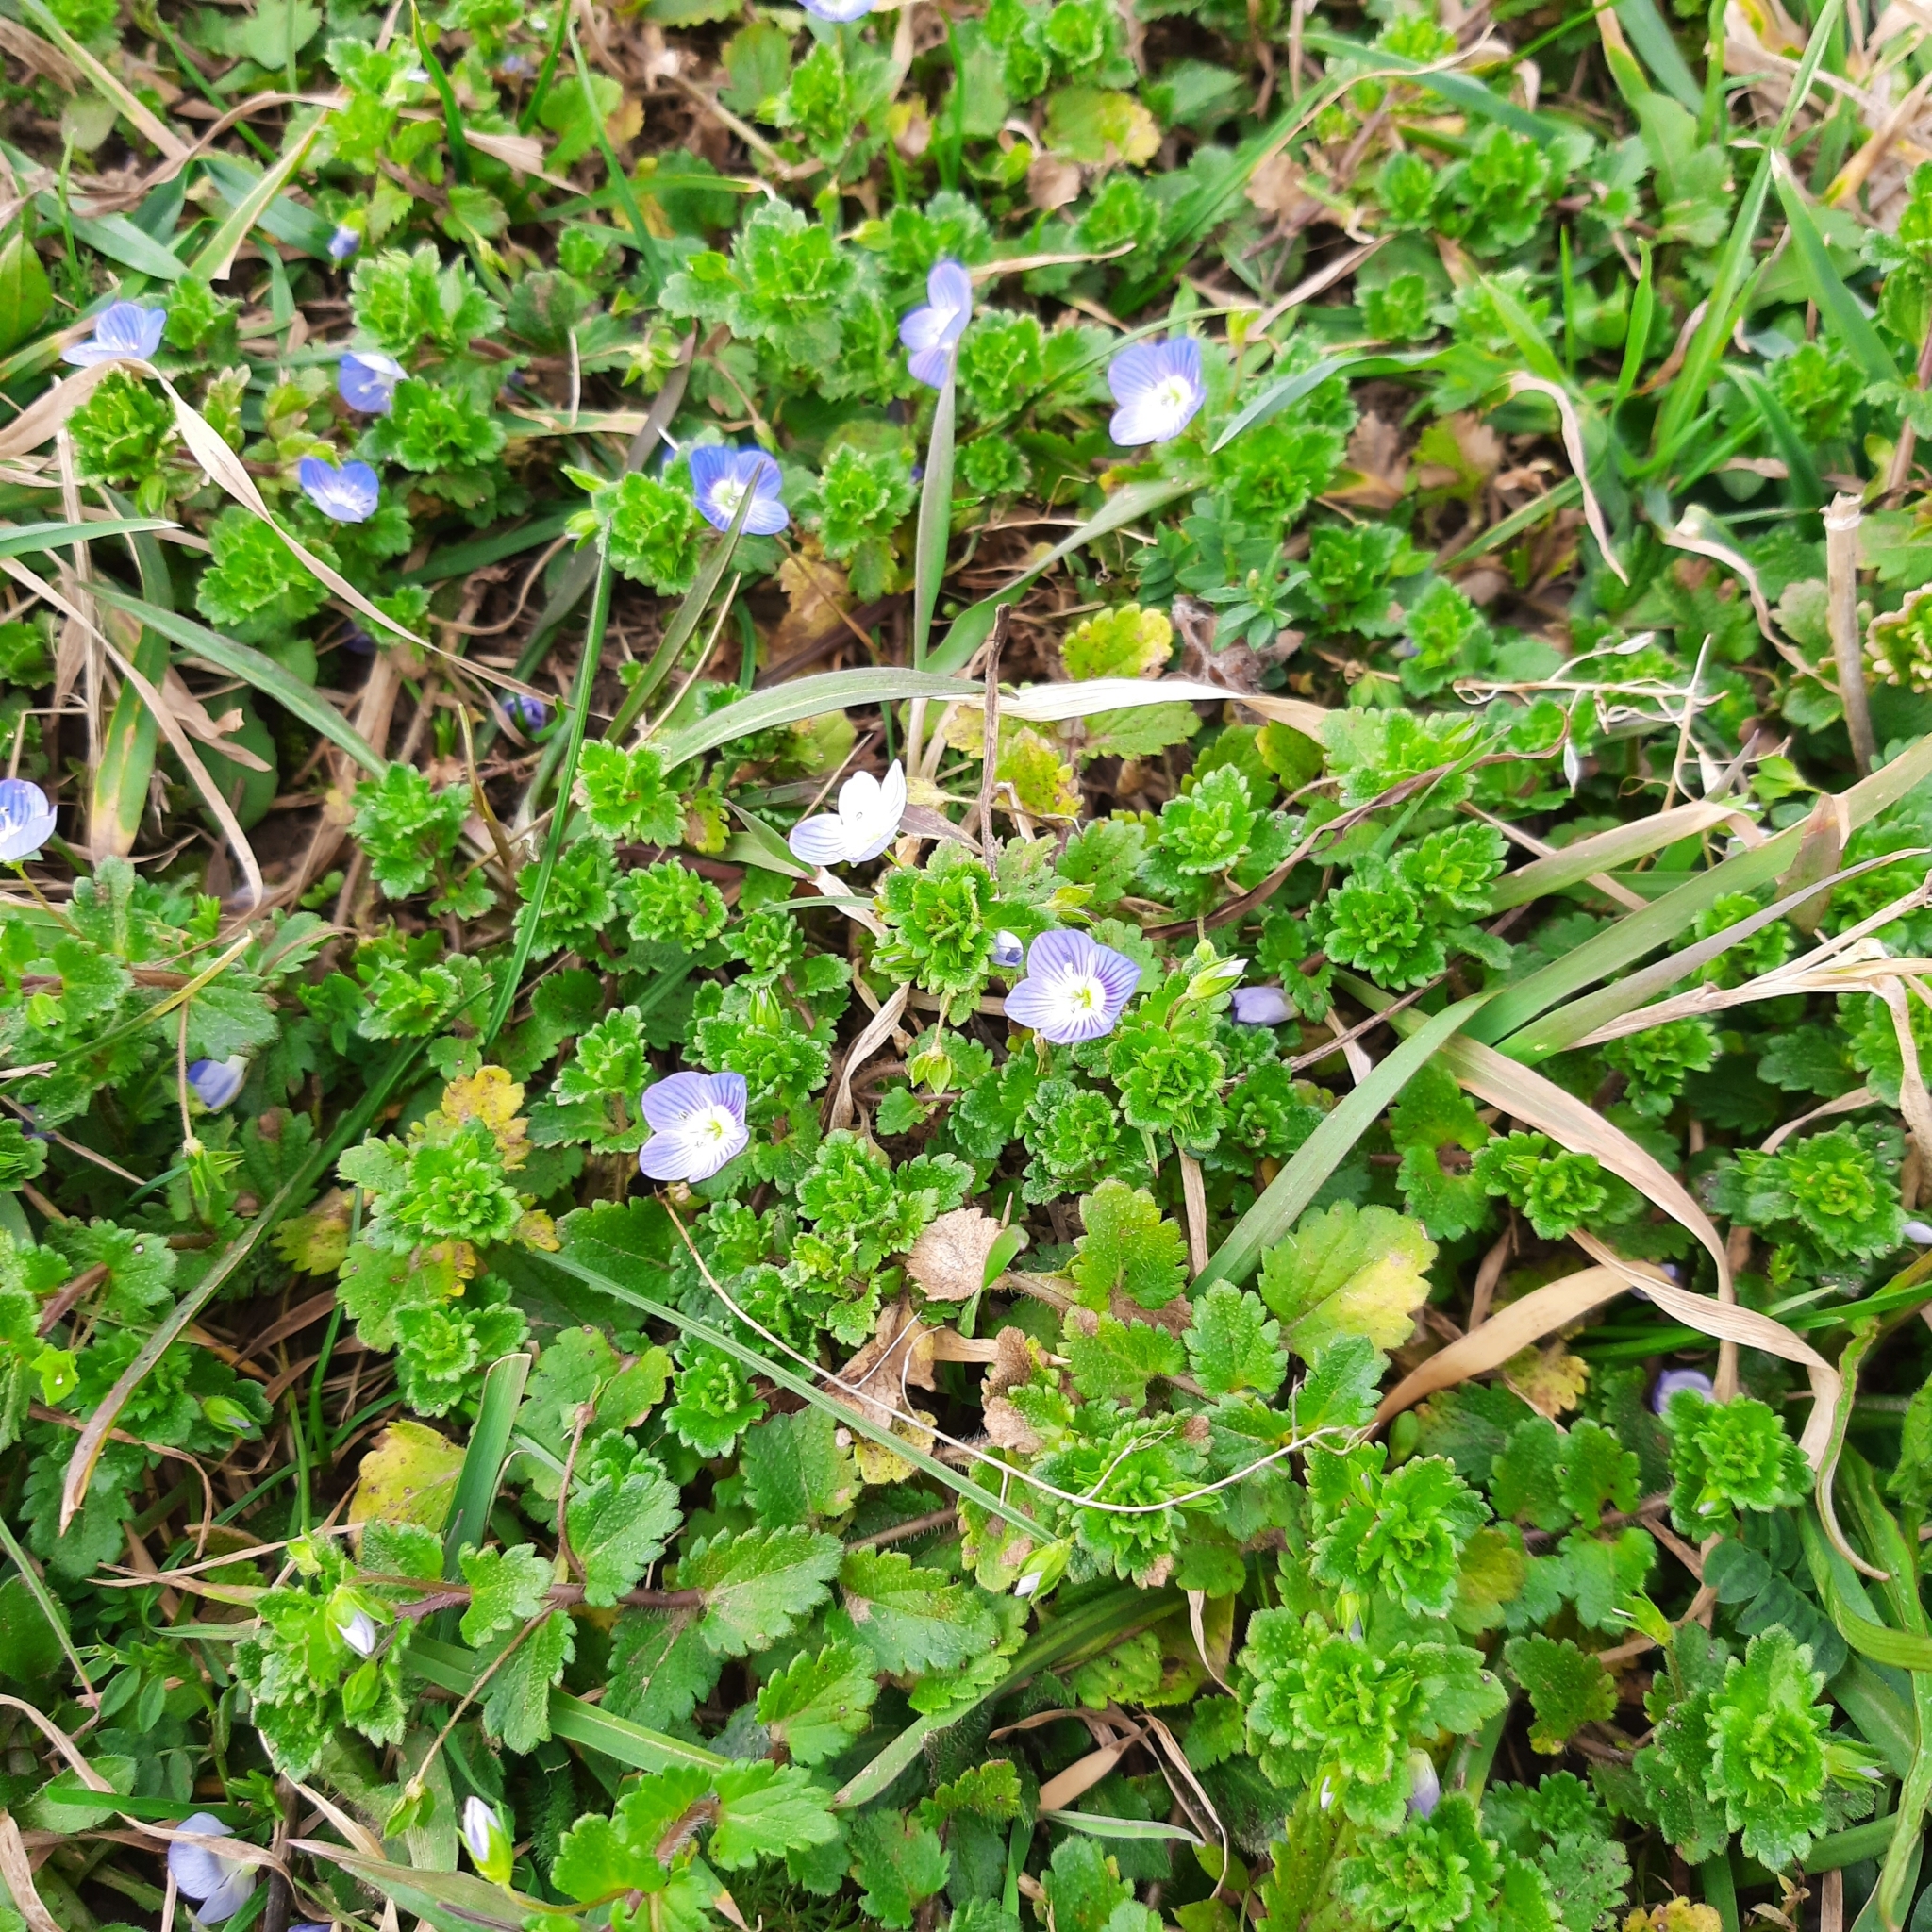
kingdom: Plantae
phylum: Tracheophyta
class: Magnoliopsida
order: Lamiales
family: Plantaginaceae
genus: Veronica
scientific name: Veronica persica
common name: Common field-speedwell
